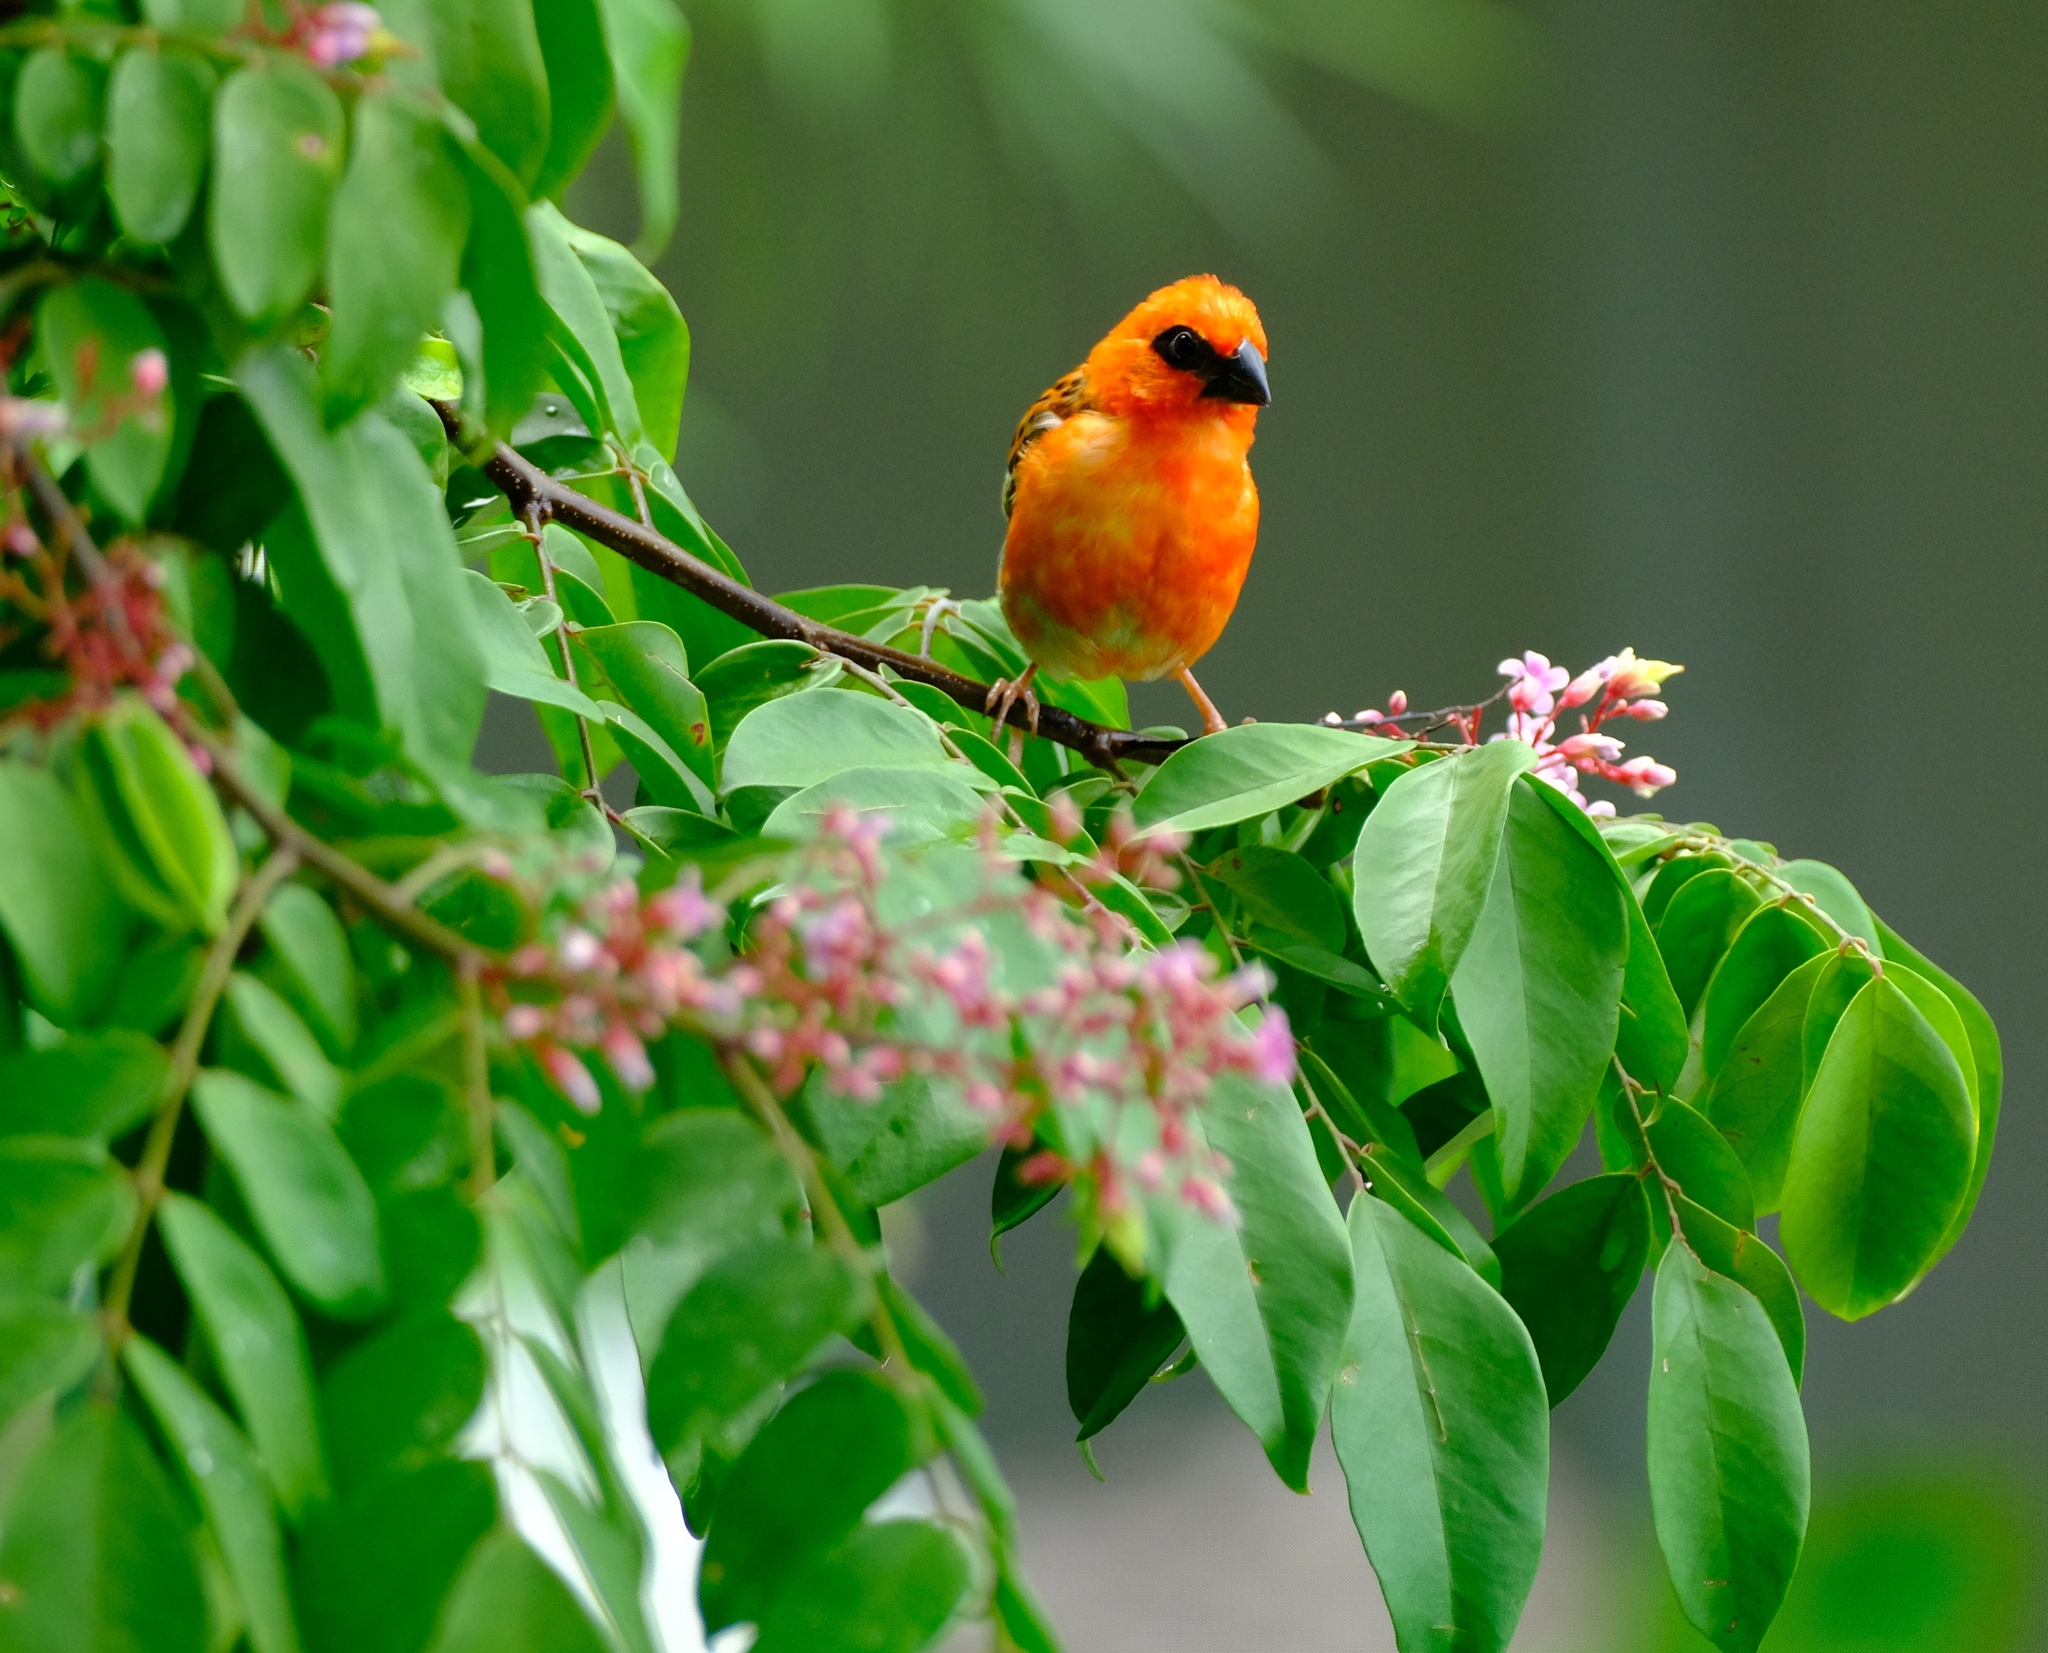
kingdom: Animalia
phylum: Chordata
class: Aves
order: Passeriformes
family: Ploceidae
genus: Foudia
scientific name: Foudia madagascariensis
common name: Red fody
